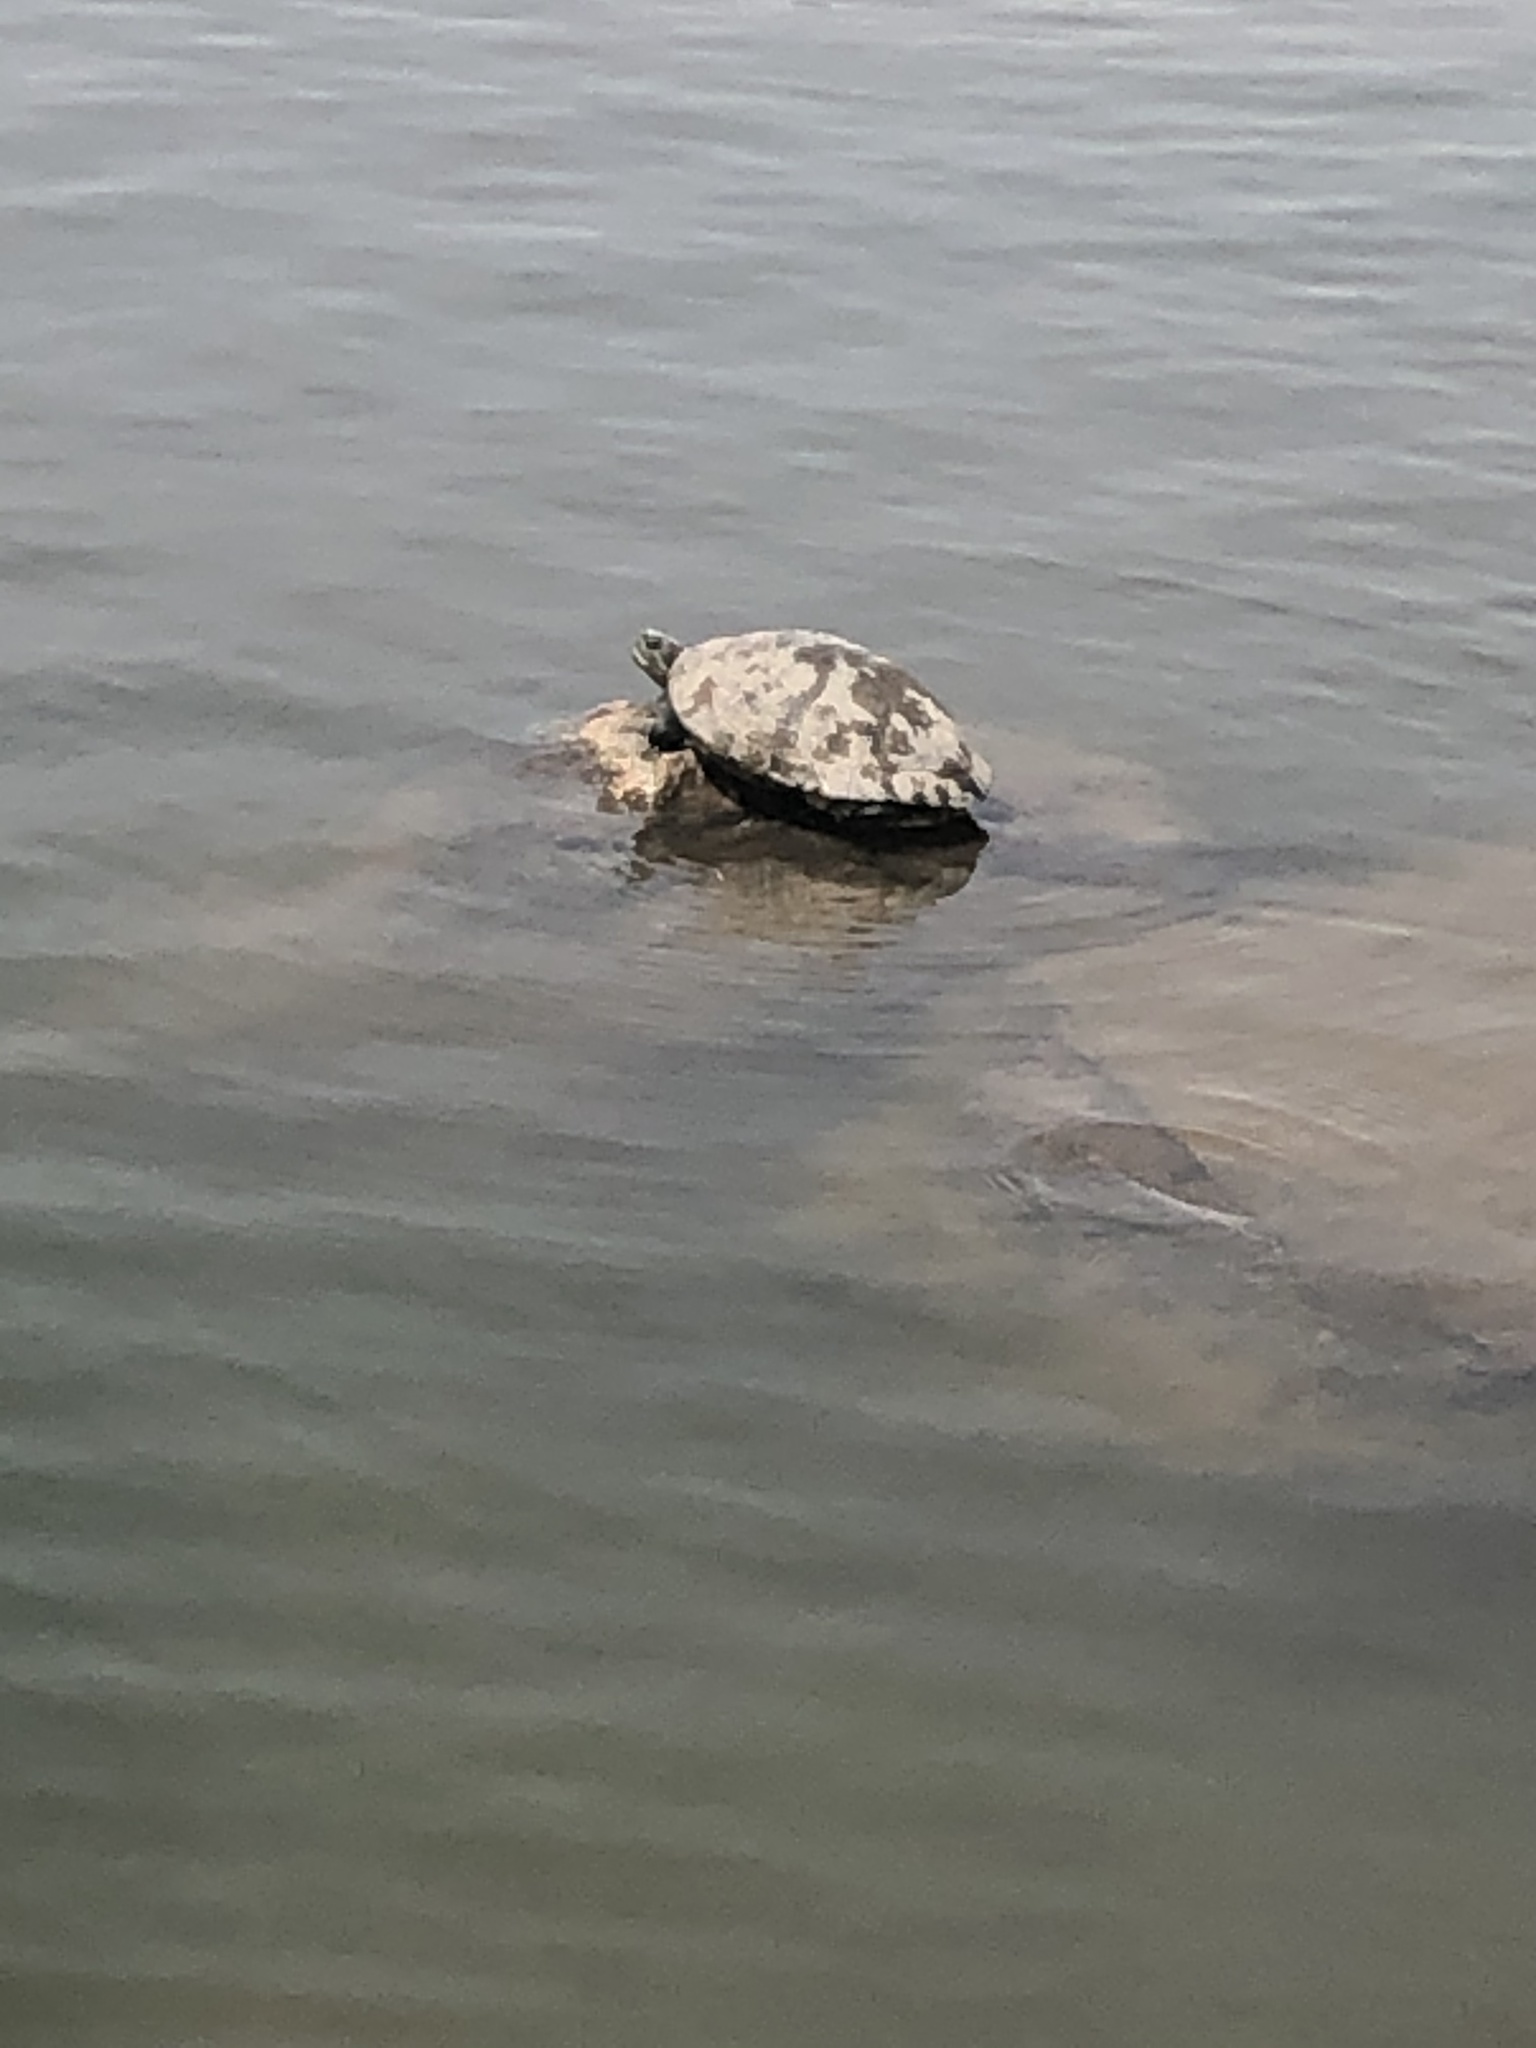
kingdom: Animalia
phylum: Chordata
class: Testudines
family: Emydidae
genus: Trachemys
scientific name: Trachemys scripta
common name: Slider
